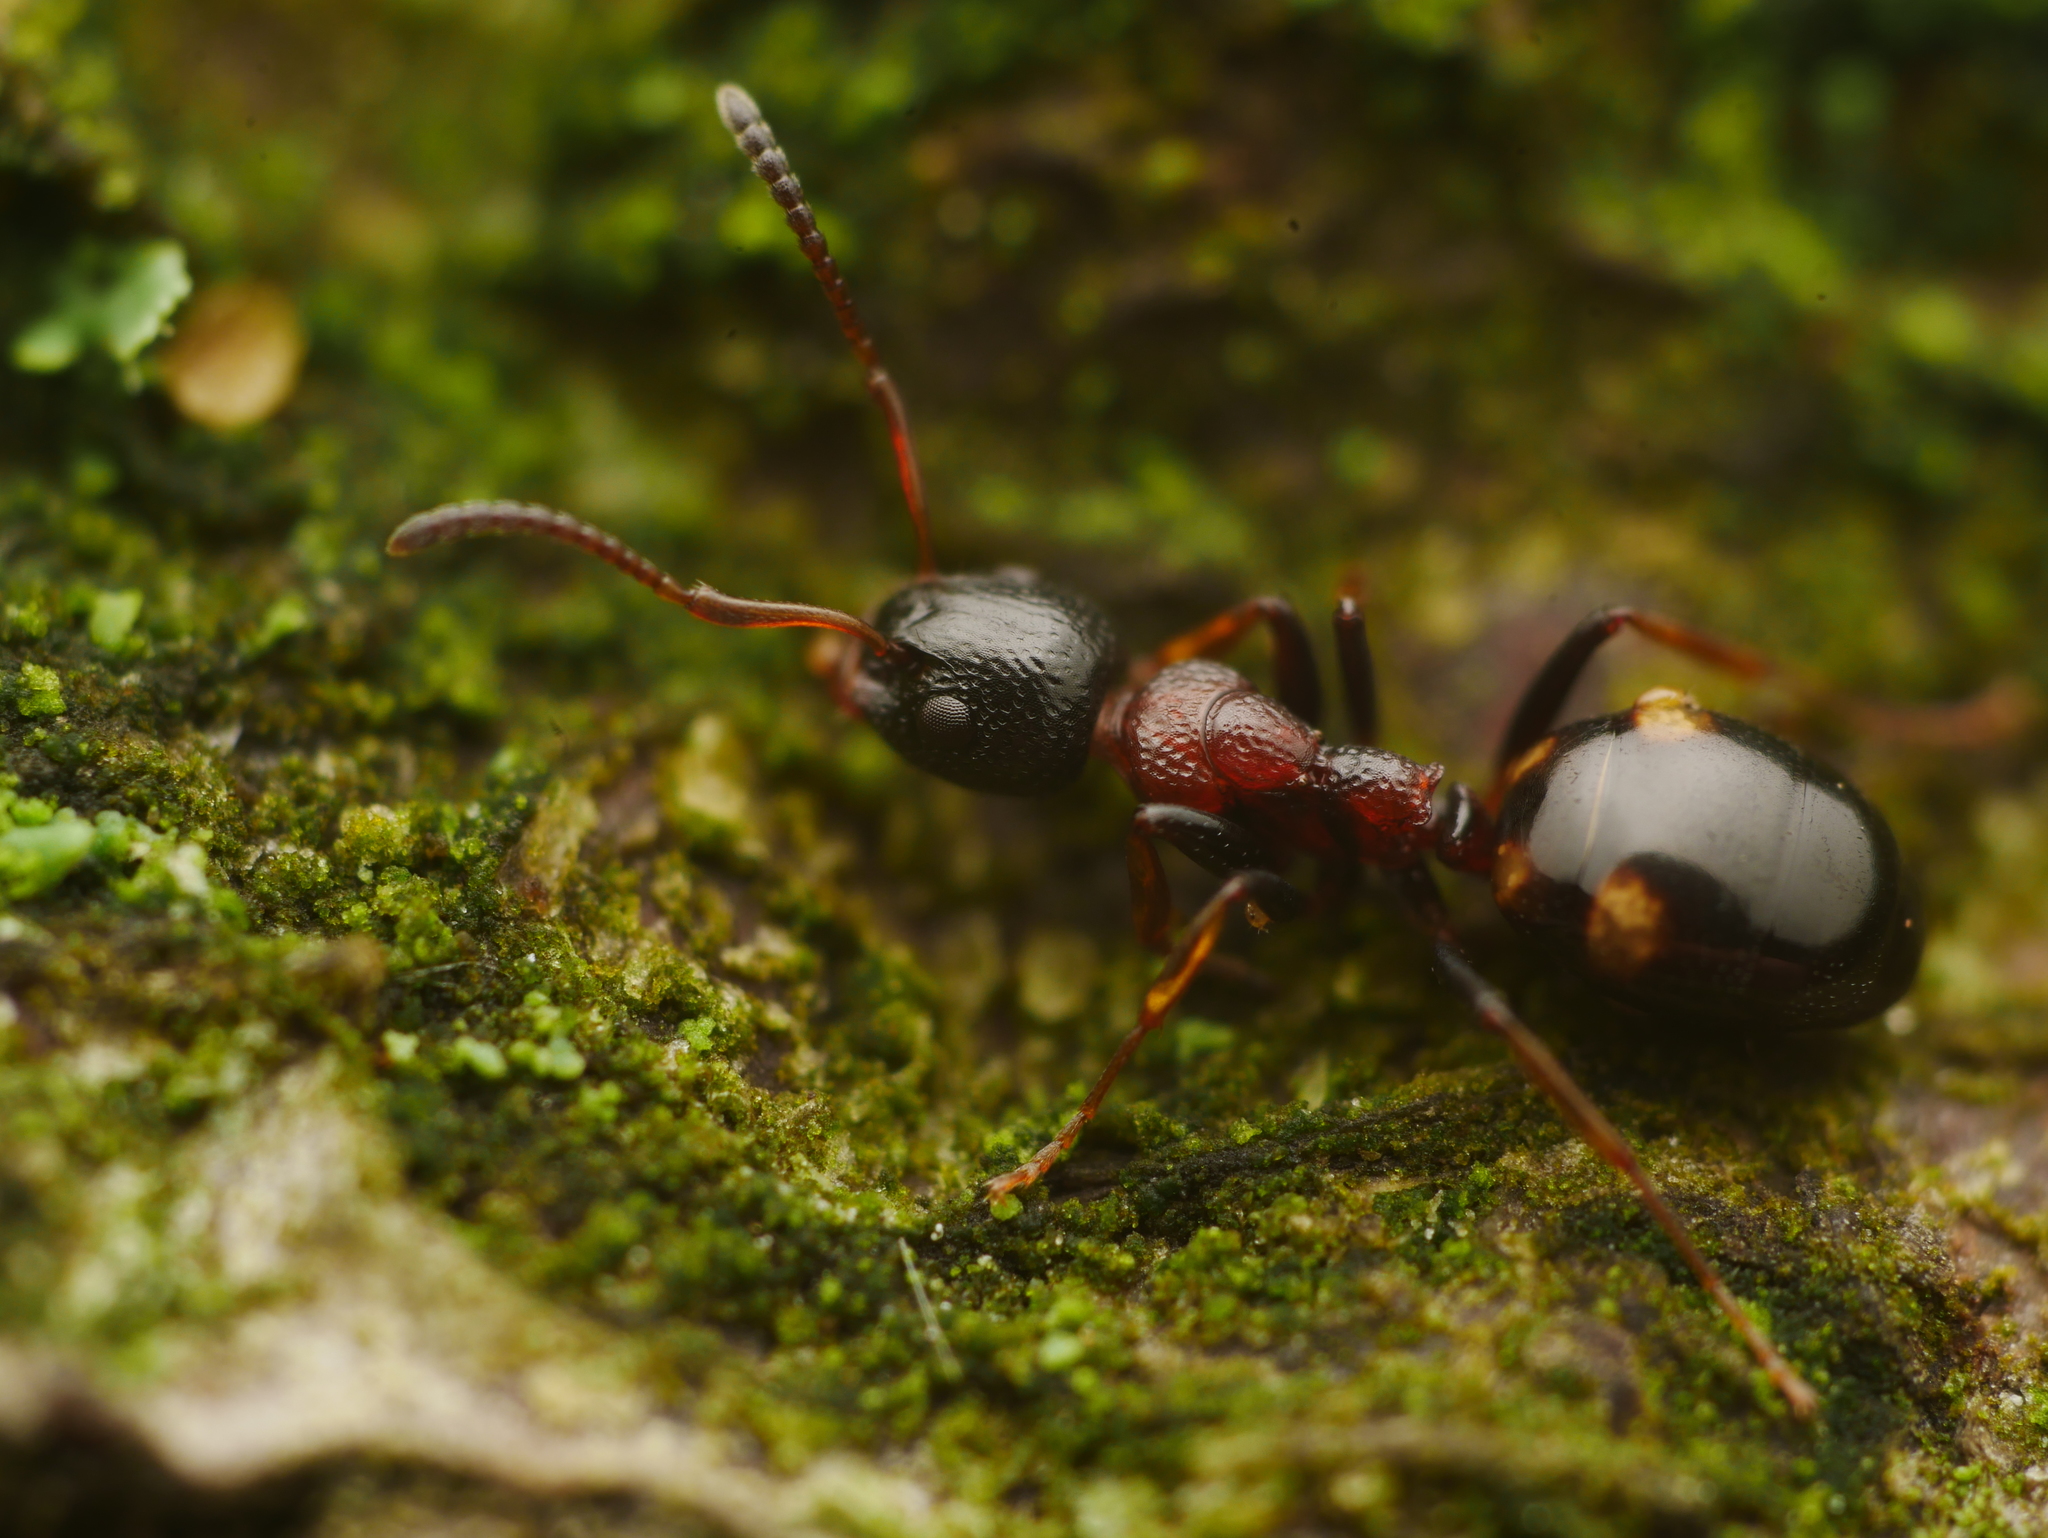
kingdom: Animalia
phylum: Arthropoda
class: Insecta
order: Hymenoptera
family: Formicidae
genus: Dolichoderus
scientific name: Dolichoderus quadripunctatus
